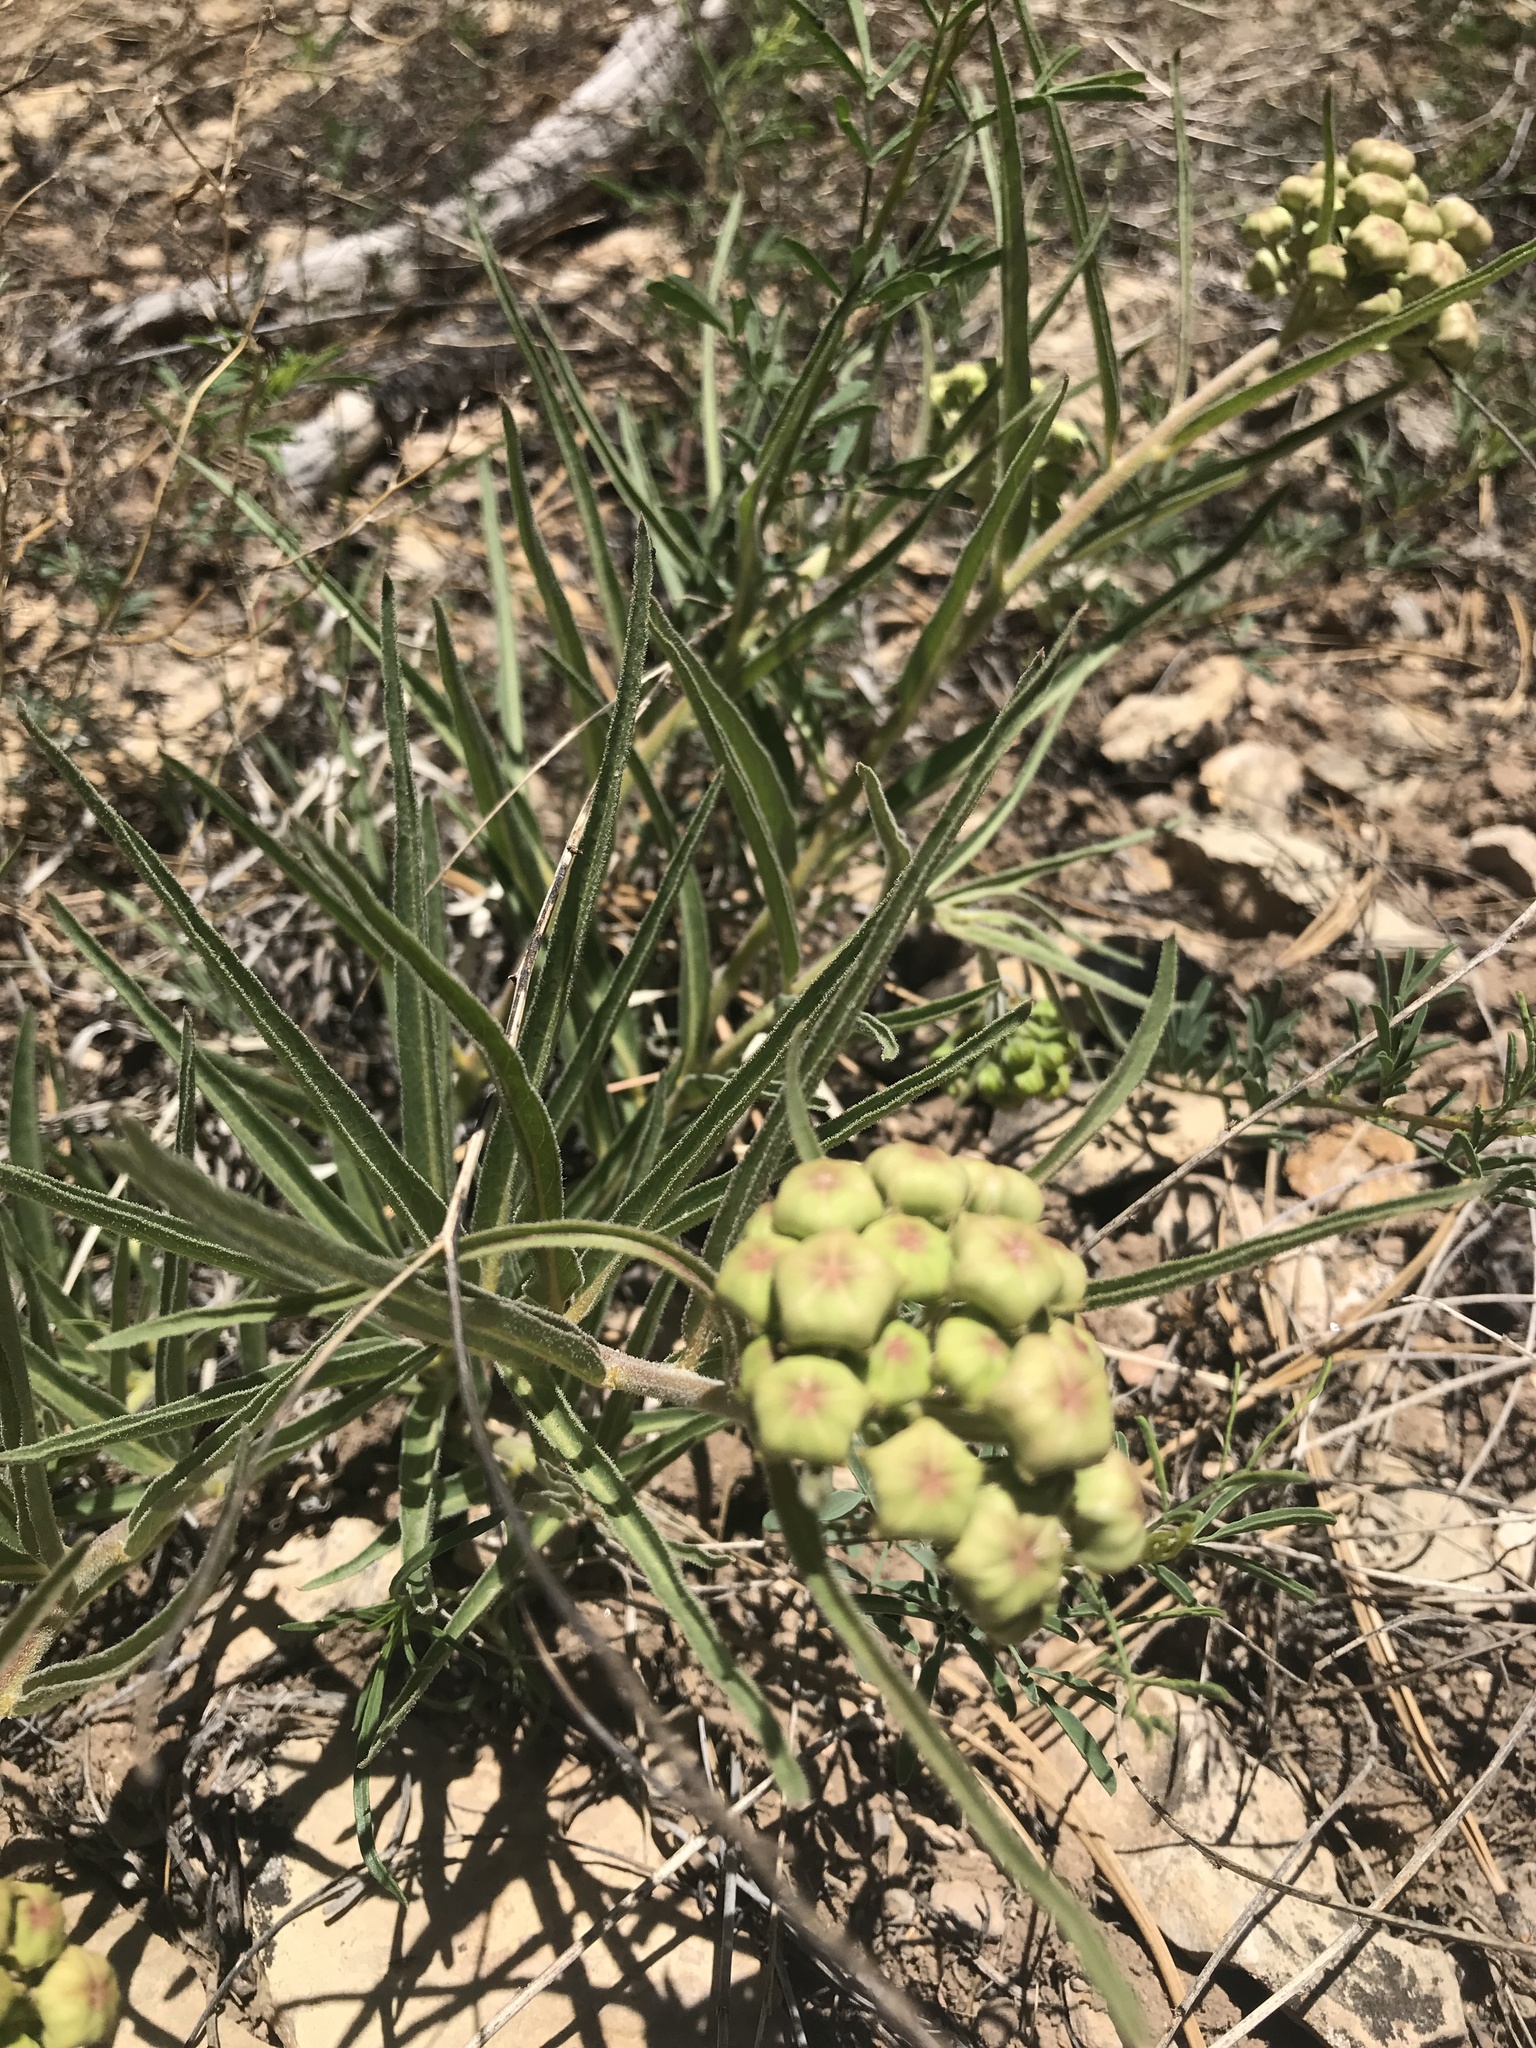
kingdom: Plantae
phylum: Tracheophyta
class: Magnoliopsida
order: Gentianales
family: Apocynaceae
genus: Asclepias
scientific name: Asclepias asperula
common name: Antelope horns
